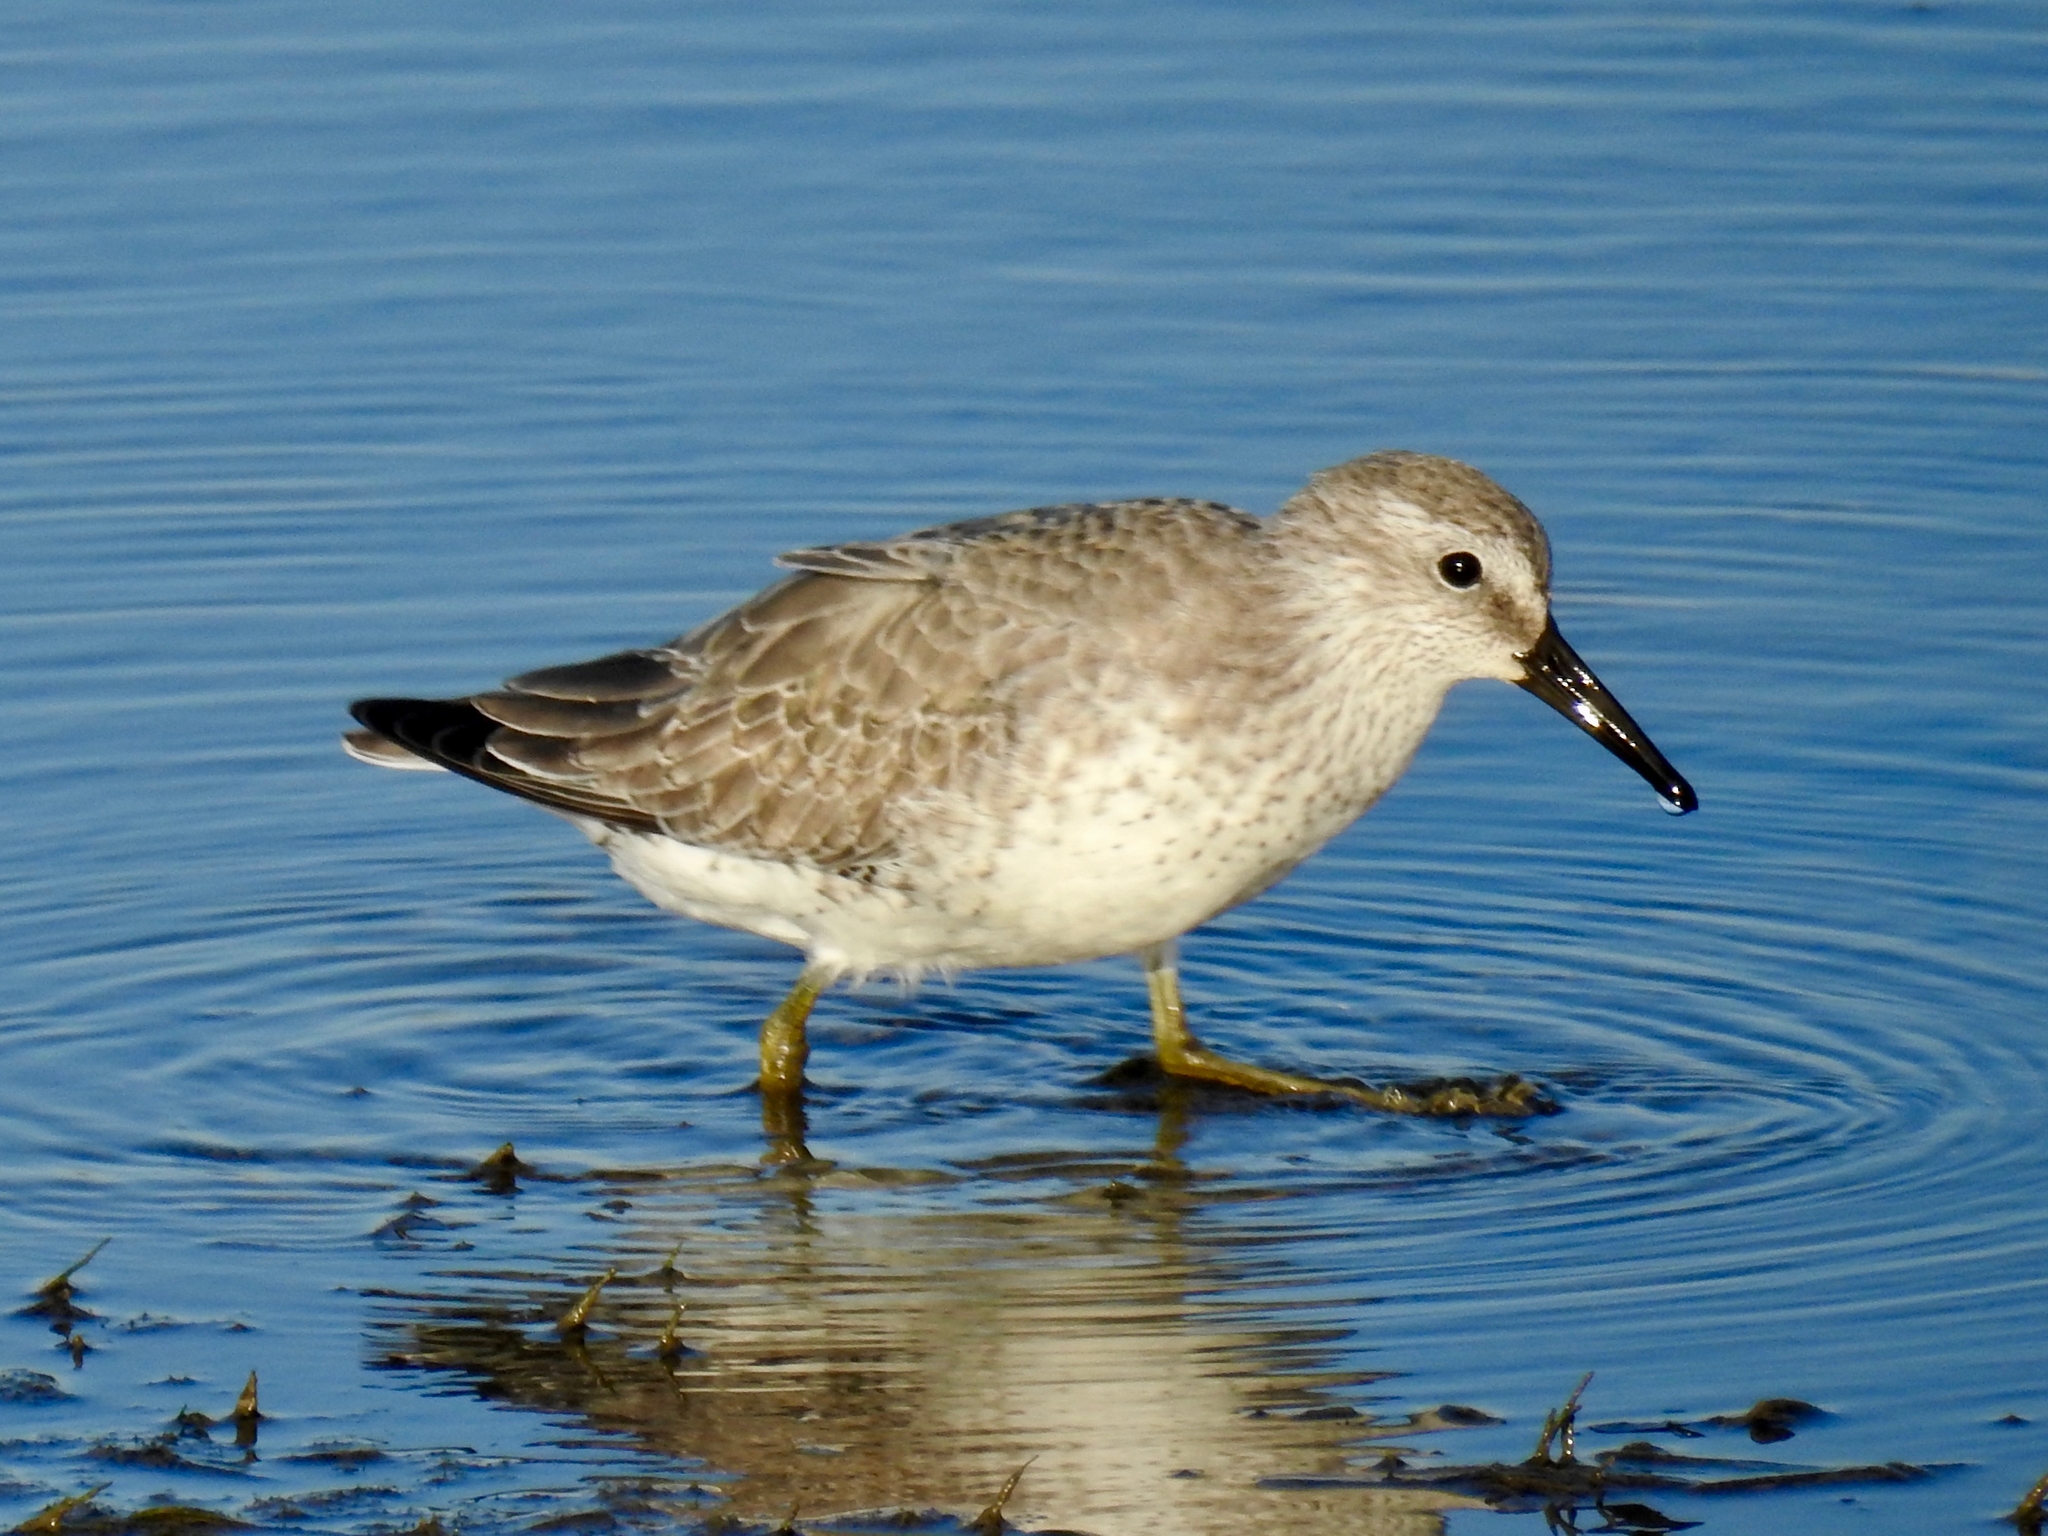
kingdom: Animalia
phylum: Chordata
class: Aves
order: Charadriiformes
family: Scolopacidae
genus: Calidris
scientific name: Calidris canutus
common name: Red knot
